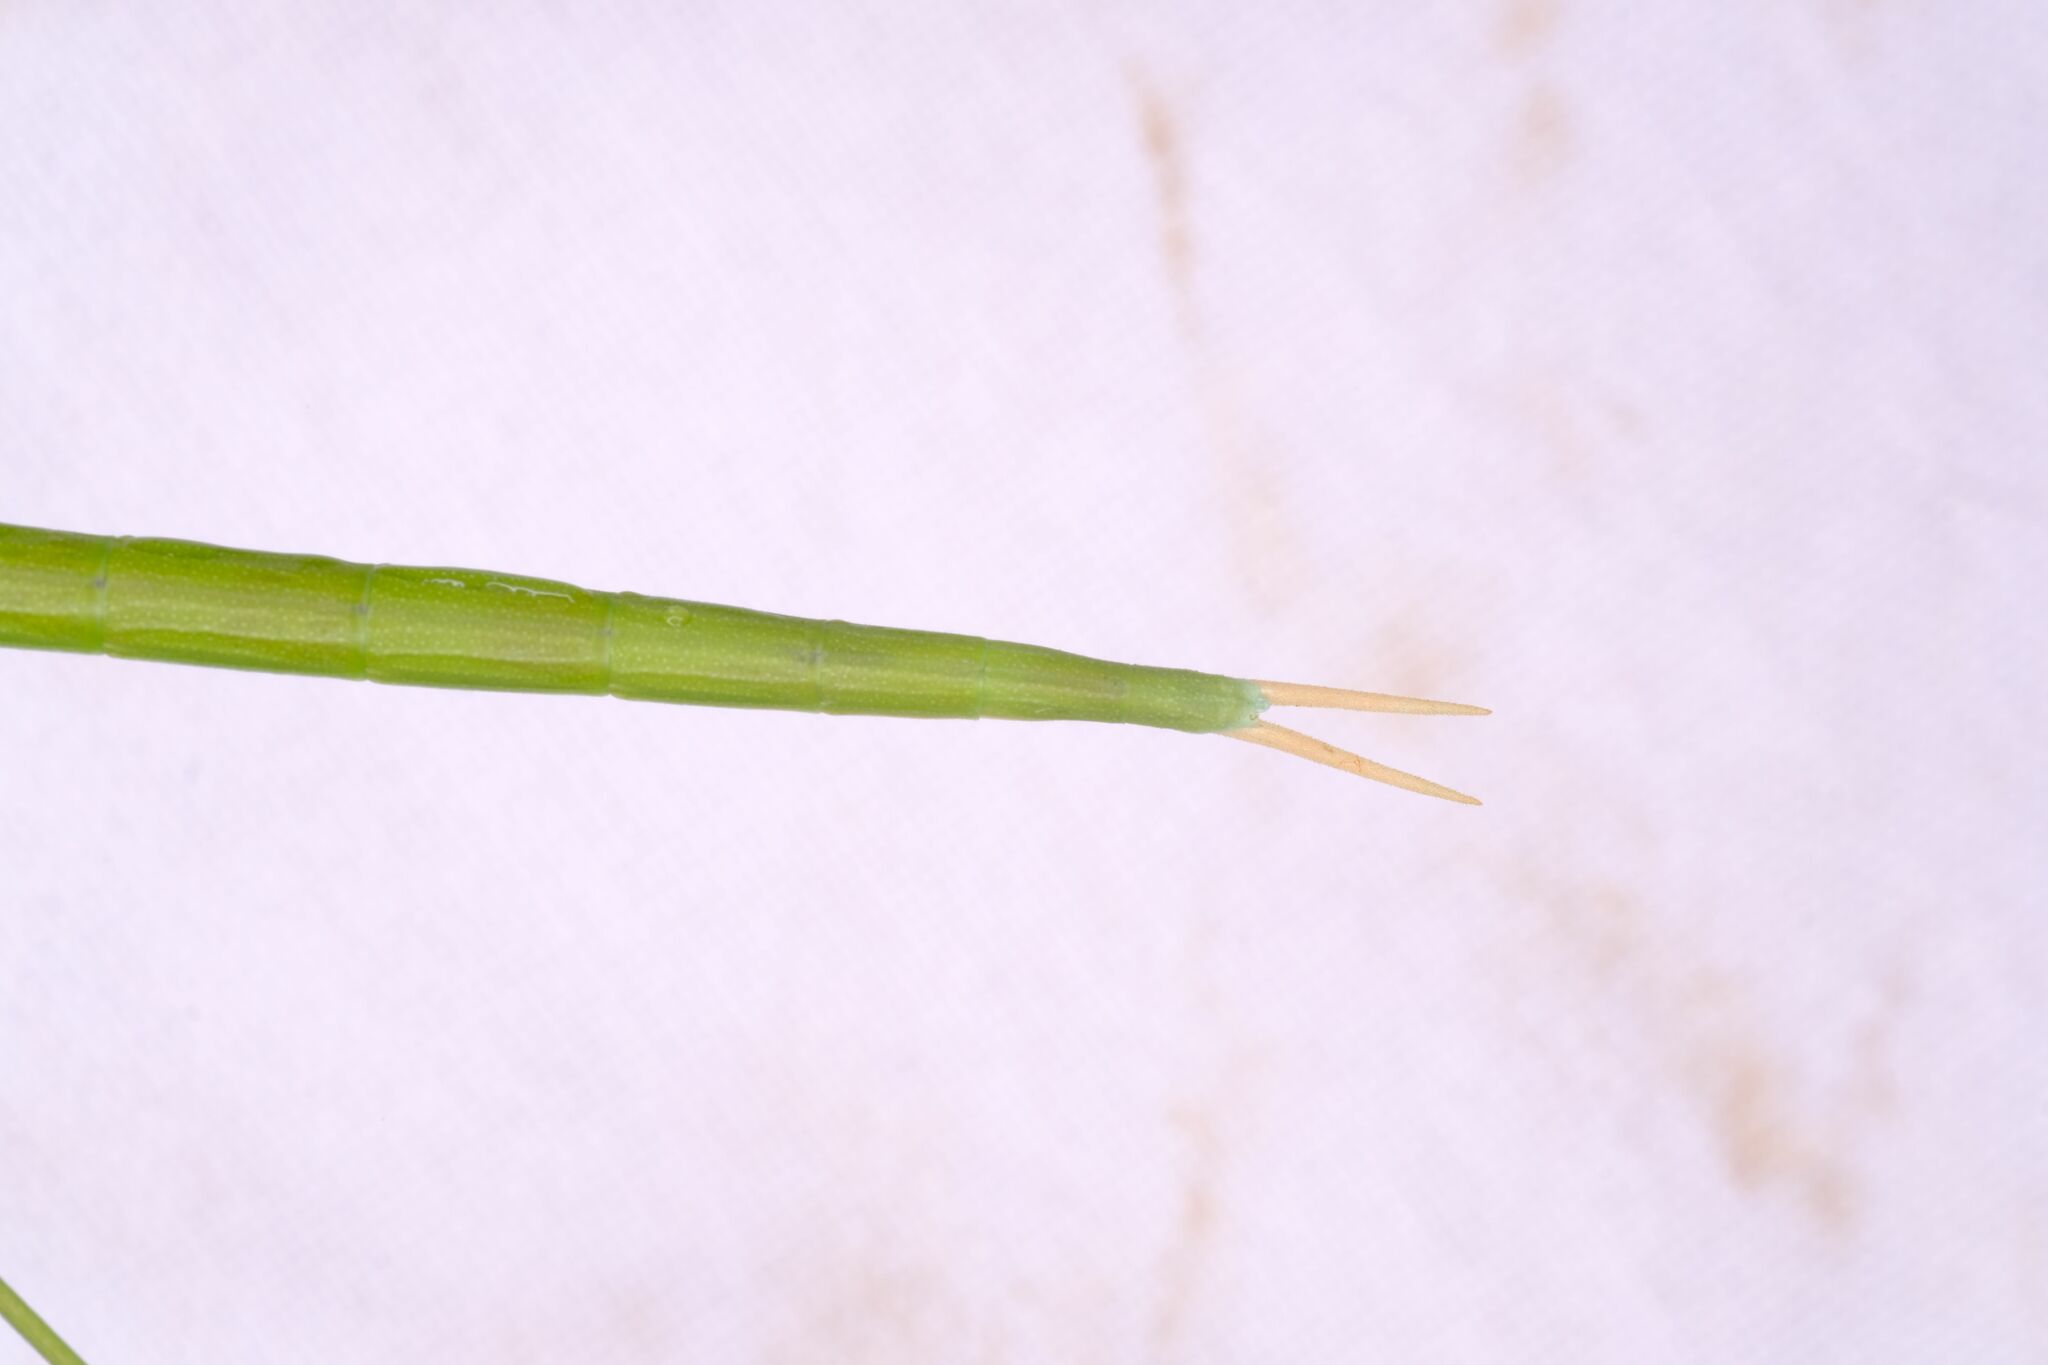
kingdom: Animalia
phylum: Arthropoda
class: Insecta
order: Phasmida
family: Lonchodidae
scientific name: Lonchodidae
